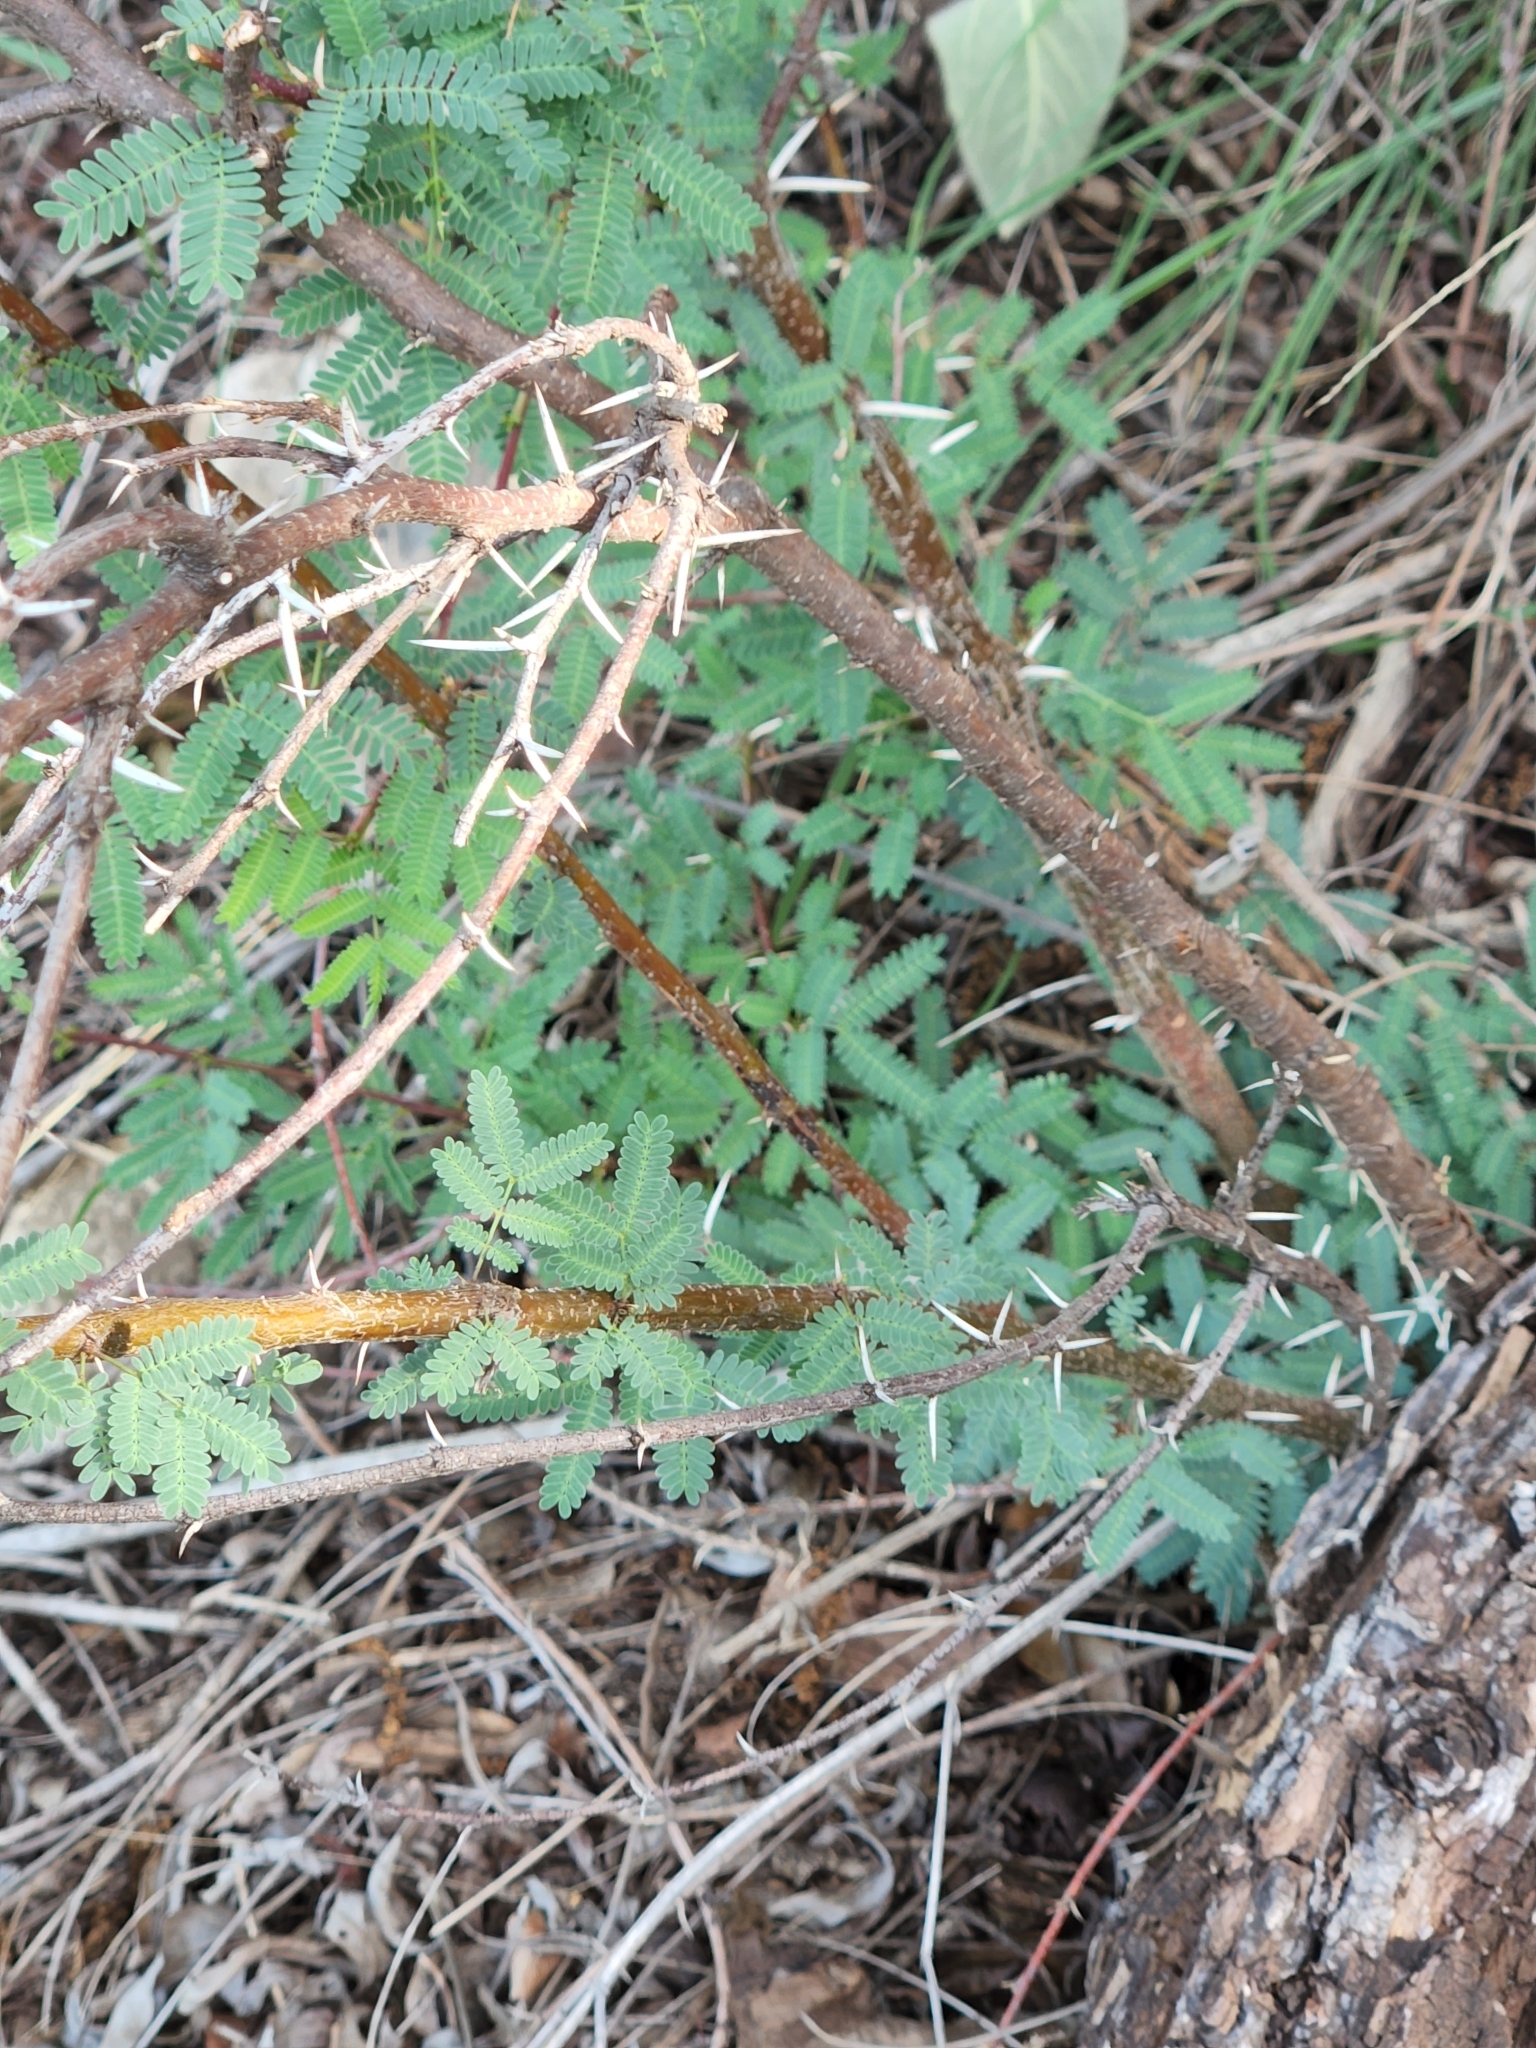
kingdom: Plantae
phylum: Tracheophyta
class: Magnoliopsida
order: Fabales
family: Fabaceae
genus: Vachellia
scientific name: Vachellia farnesiana
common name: Sweet acacia
